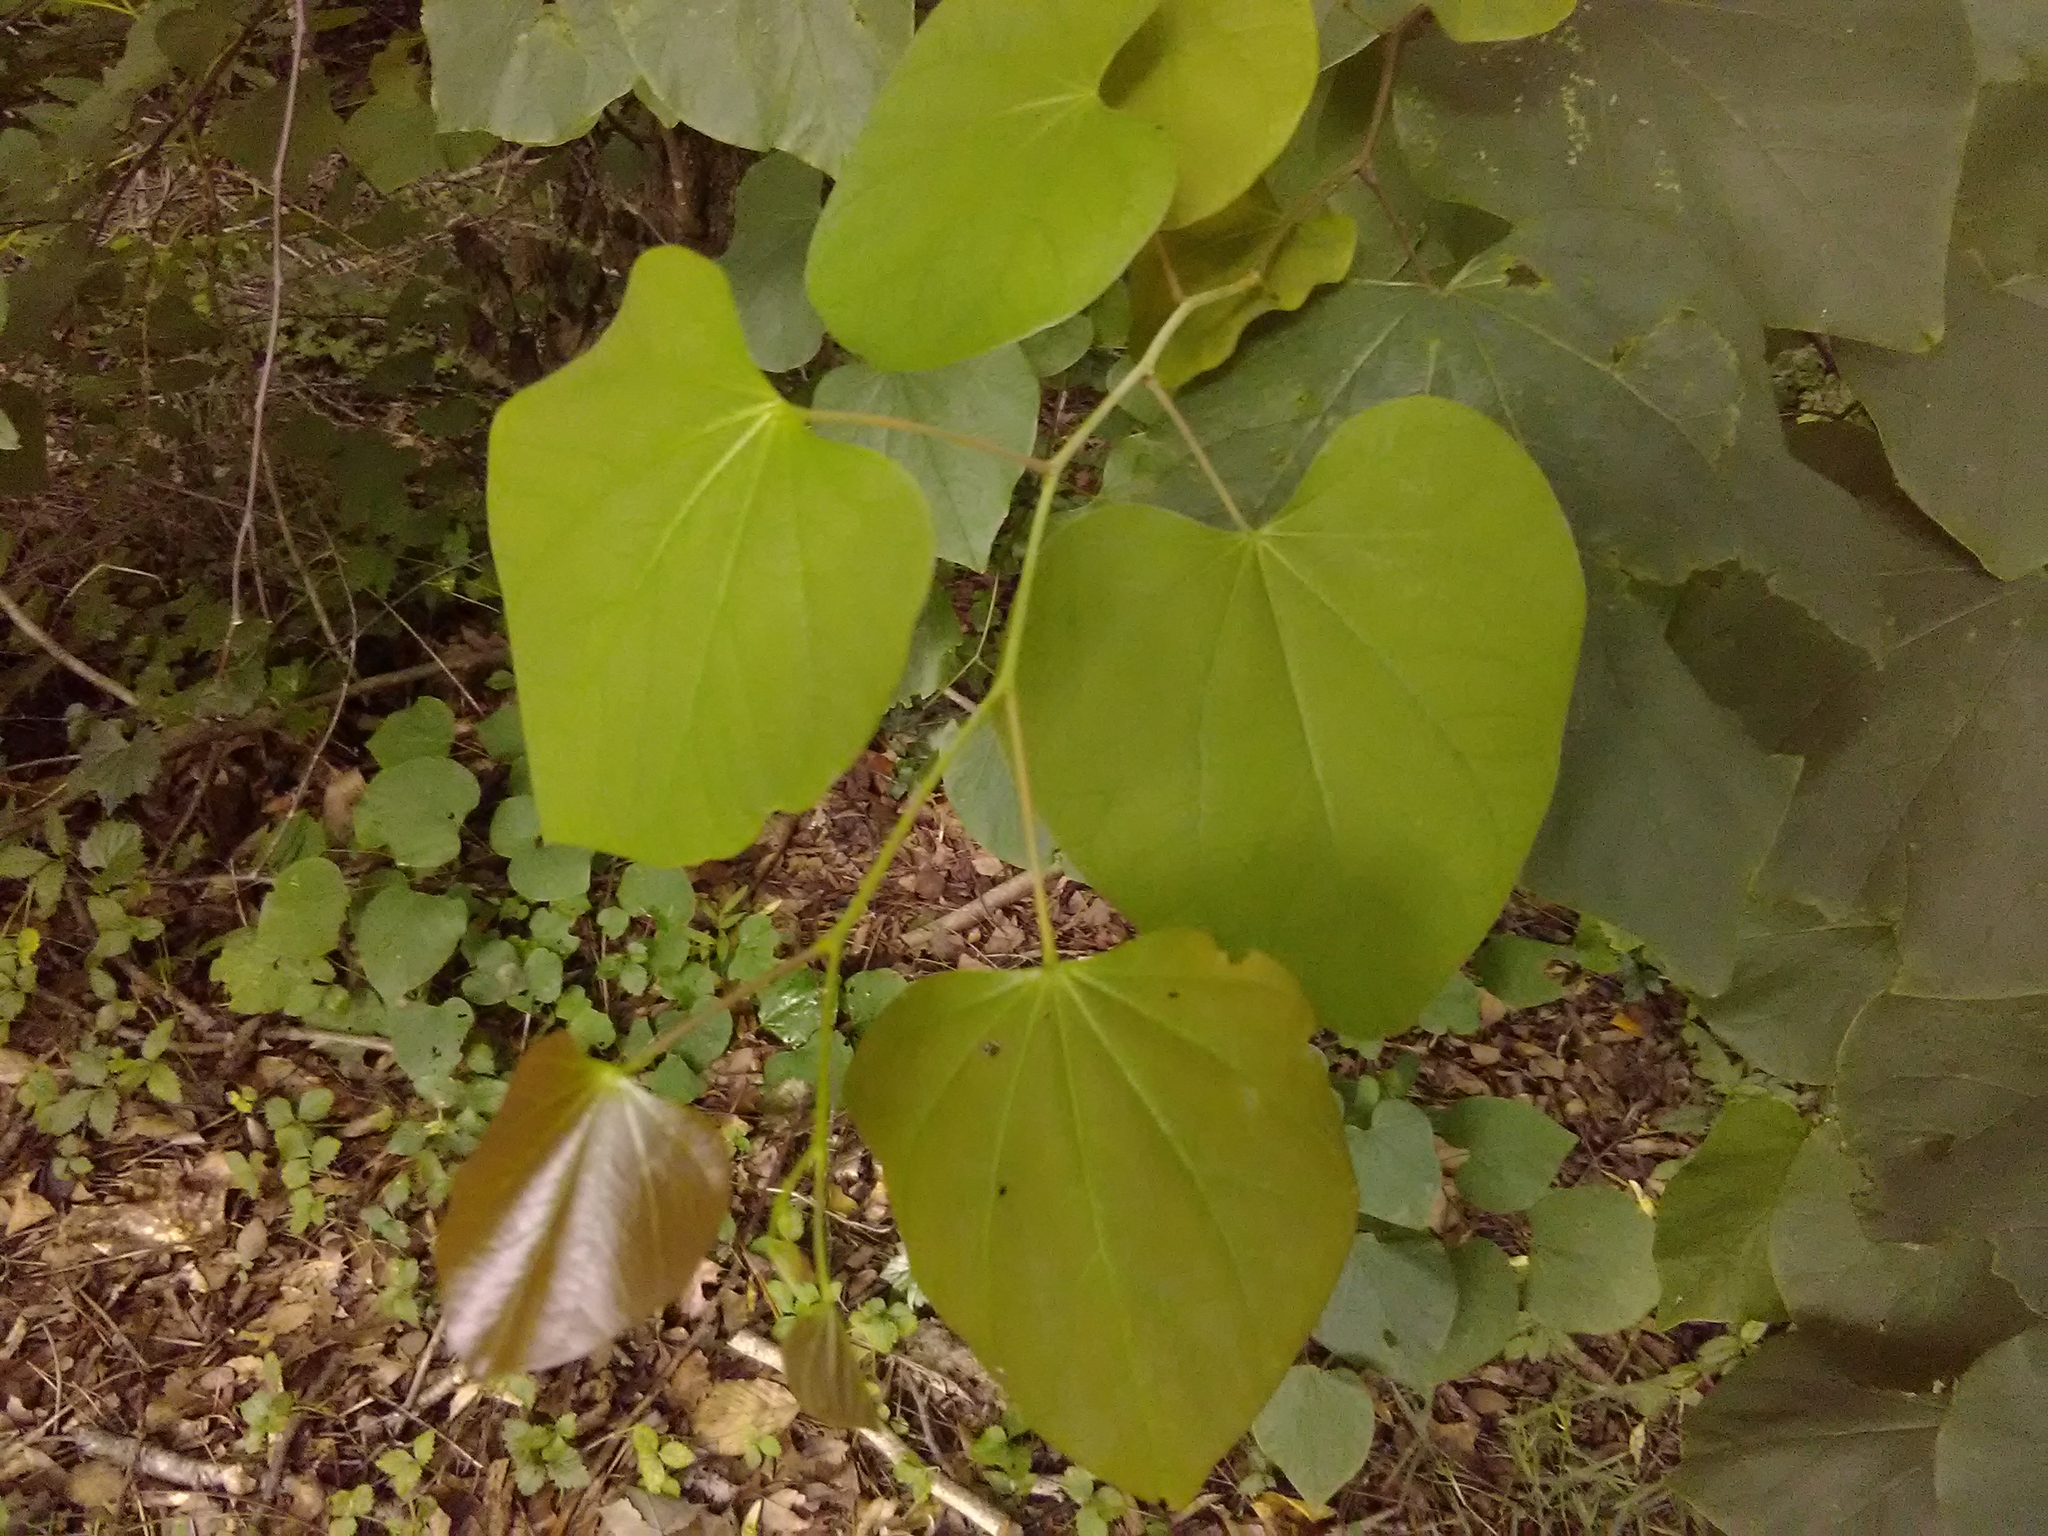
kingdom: Plantae
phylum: Tracheophyta
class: Magnoliopsida
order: Fabales
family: Fabaceae
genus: Cercis
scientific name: Cercis canadensis
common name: Eastern redbud
